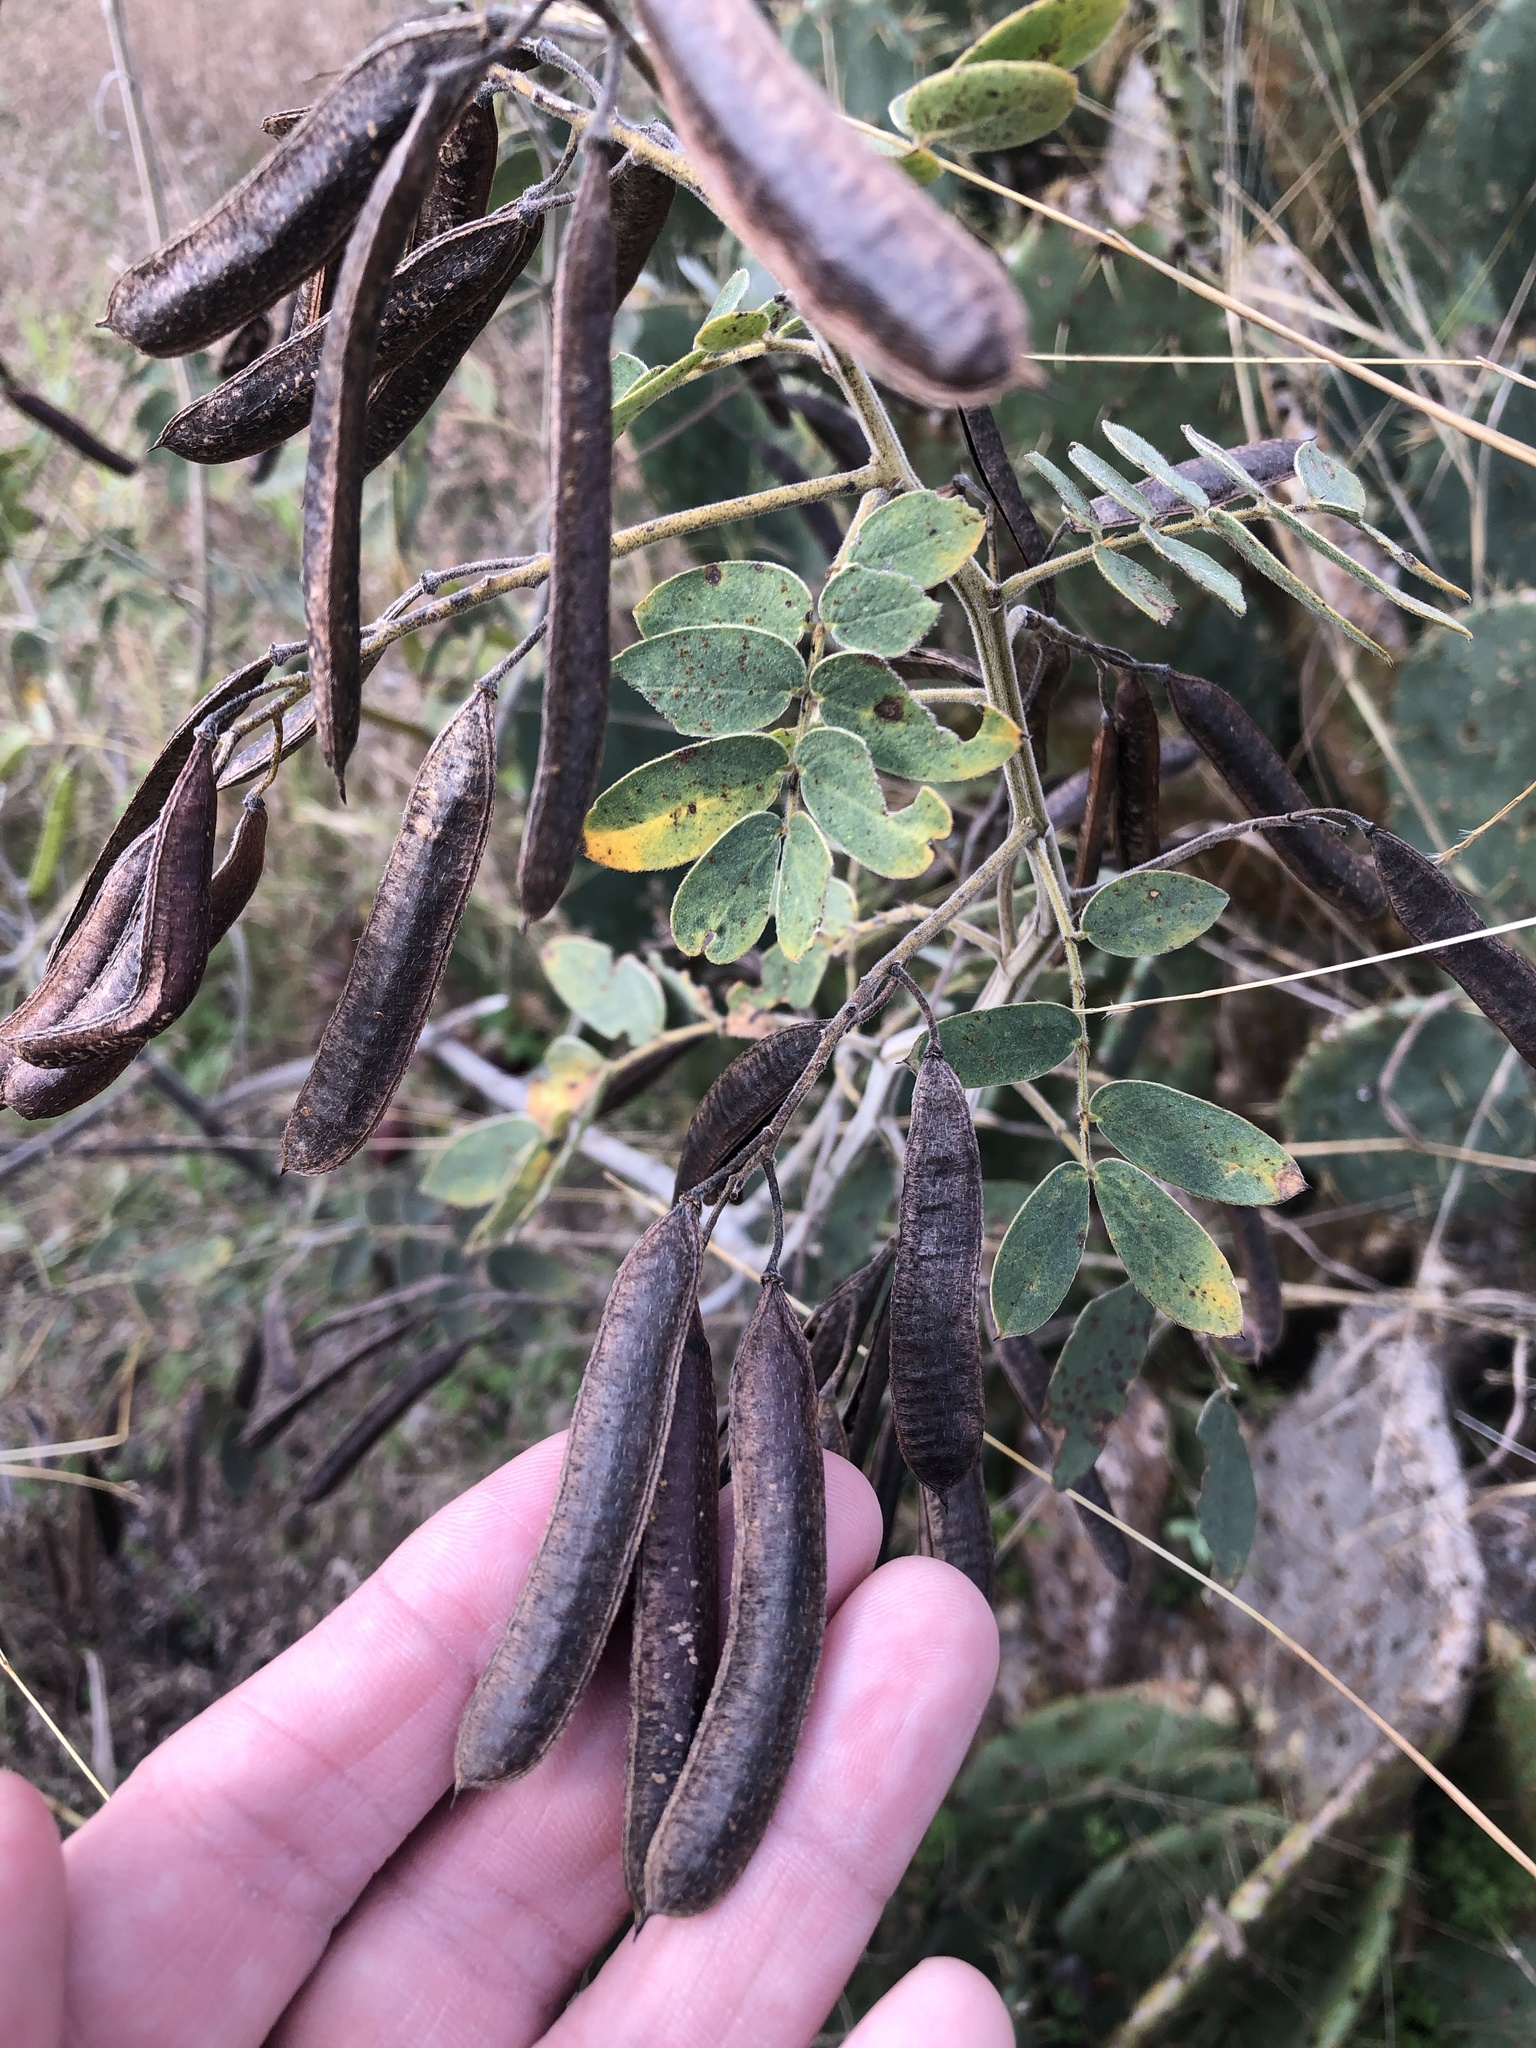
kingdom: Plantae
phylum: Tracheophyta
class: Magnoliopsida
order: Fabales
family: Fabaceae
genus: Senna
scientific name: Senna lindheimeriana
